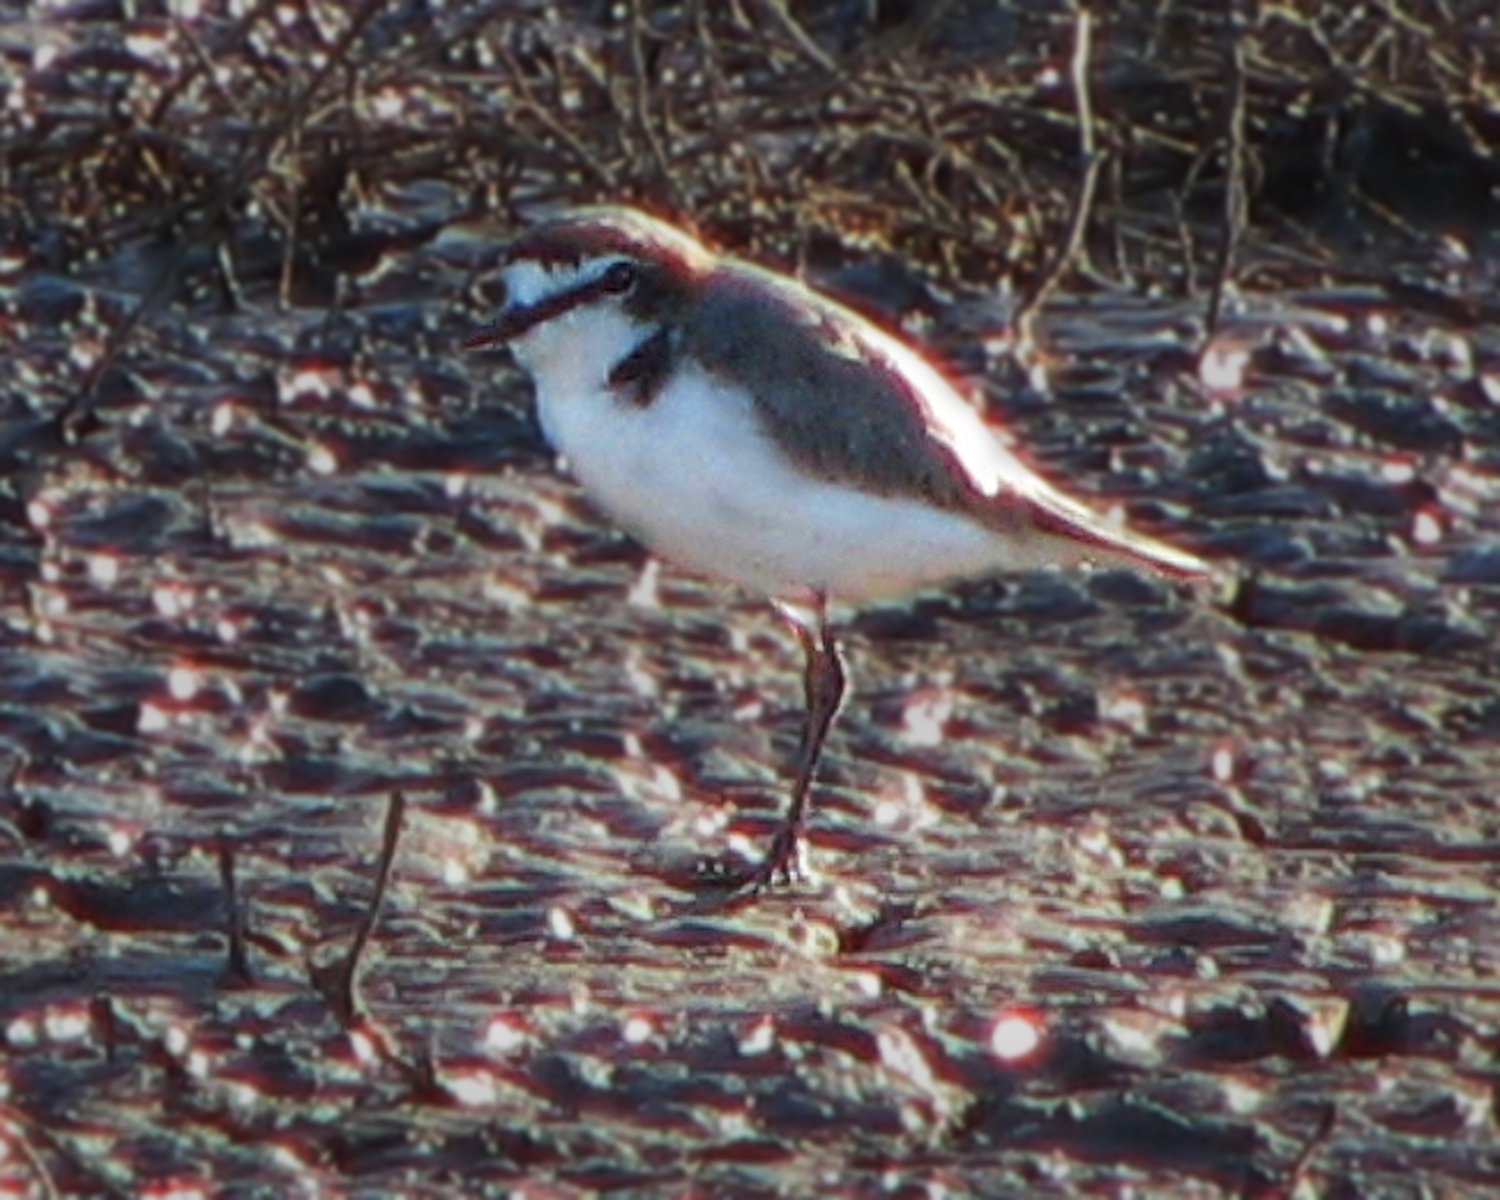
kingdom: Animalia
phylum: Chordata
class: Aves
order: Charadriiformes
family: Charadriidae
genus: Anarhynchus
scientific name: Anarhynchus
